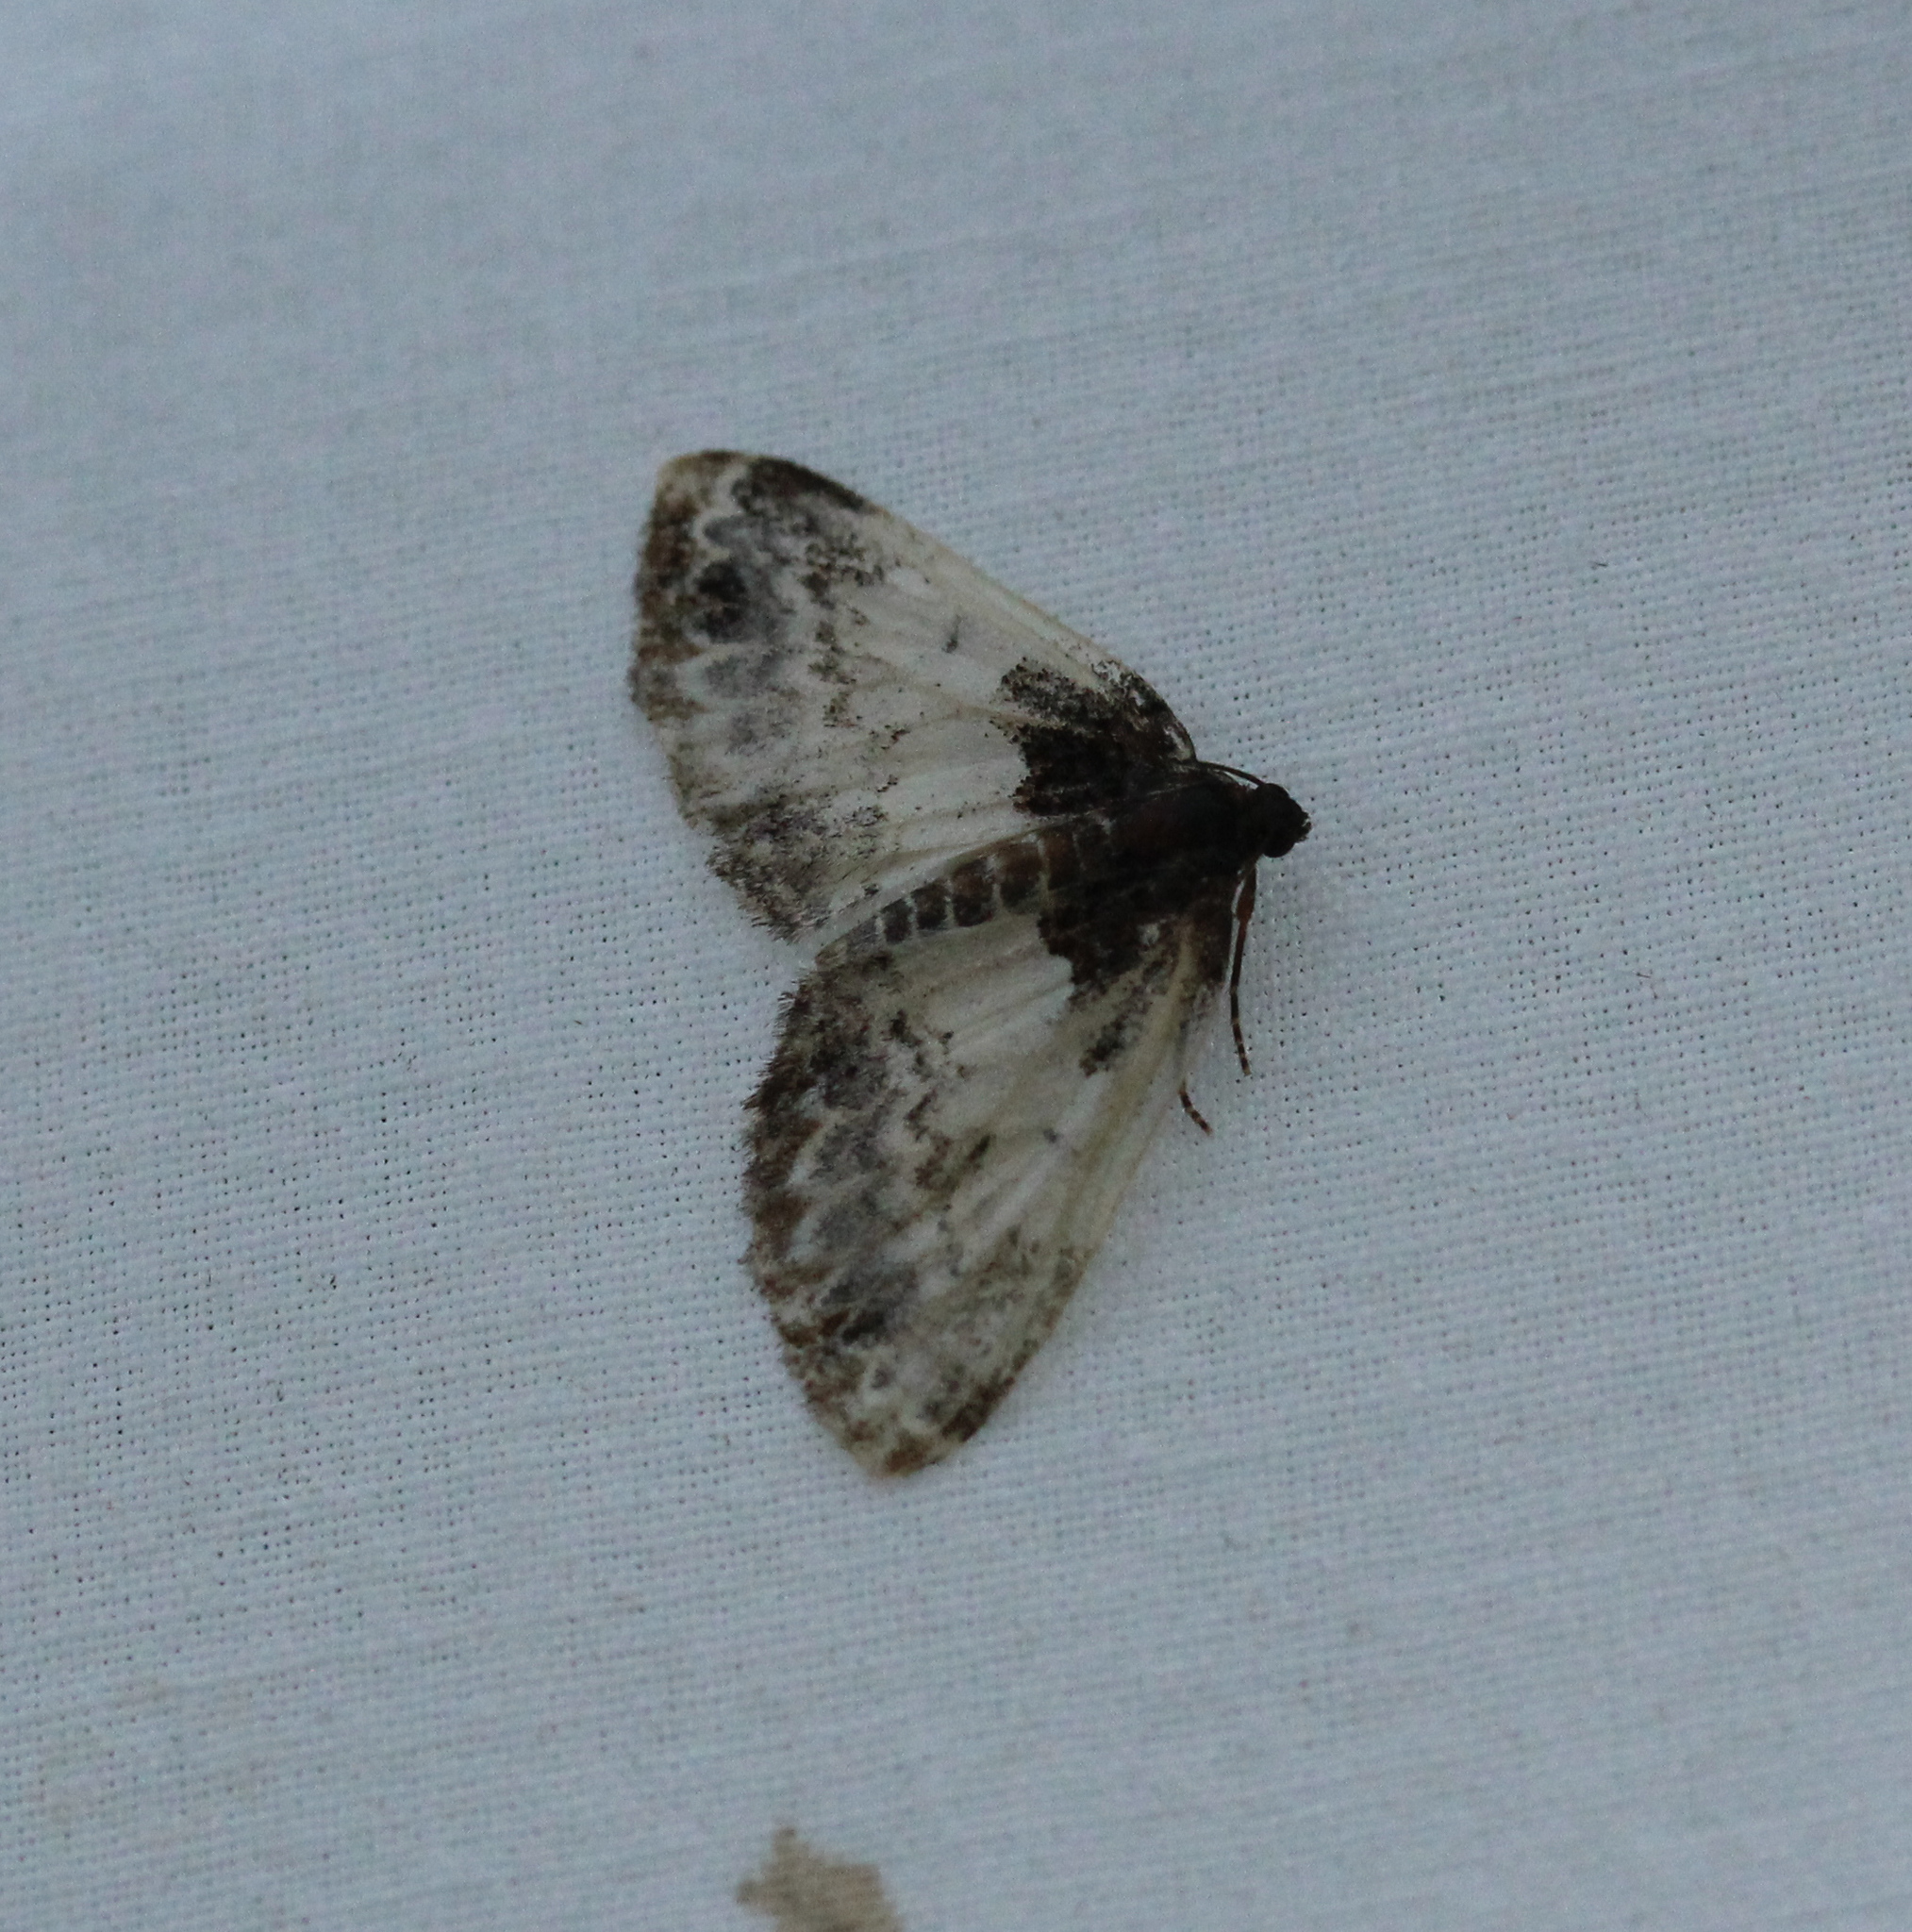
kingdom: Animalia
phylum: Arthropoda
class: Insecta
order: Lepidoptera
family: Geometridae
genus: Mesoleuca
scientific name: Mesoleuca ruficillata
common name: White-ribboned carpet moth
